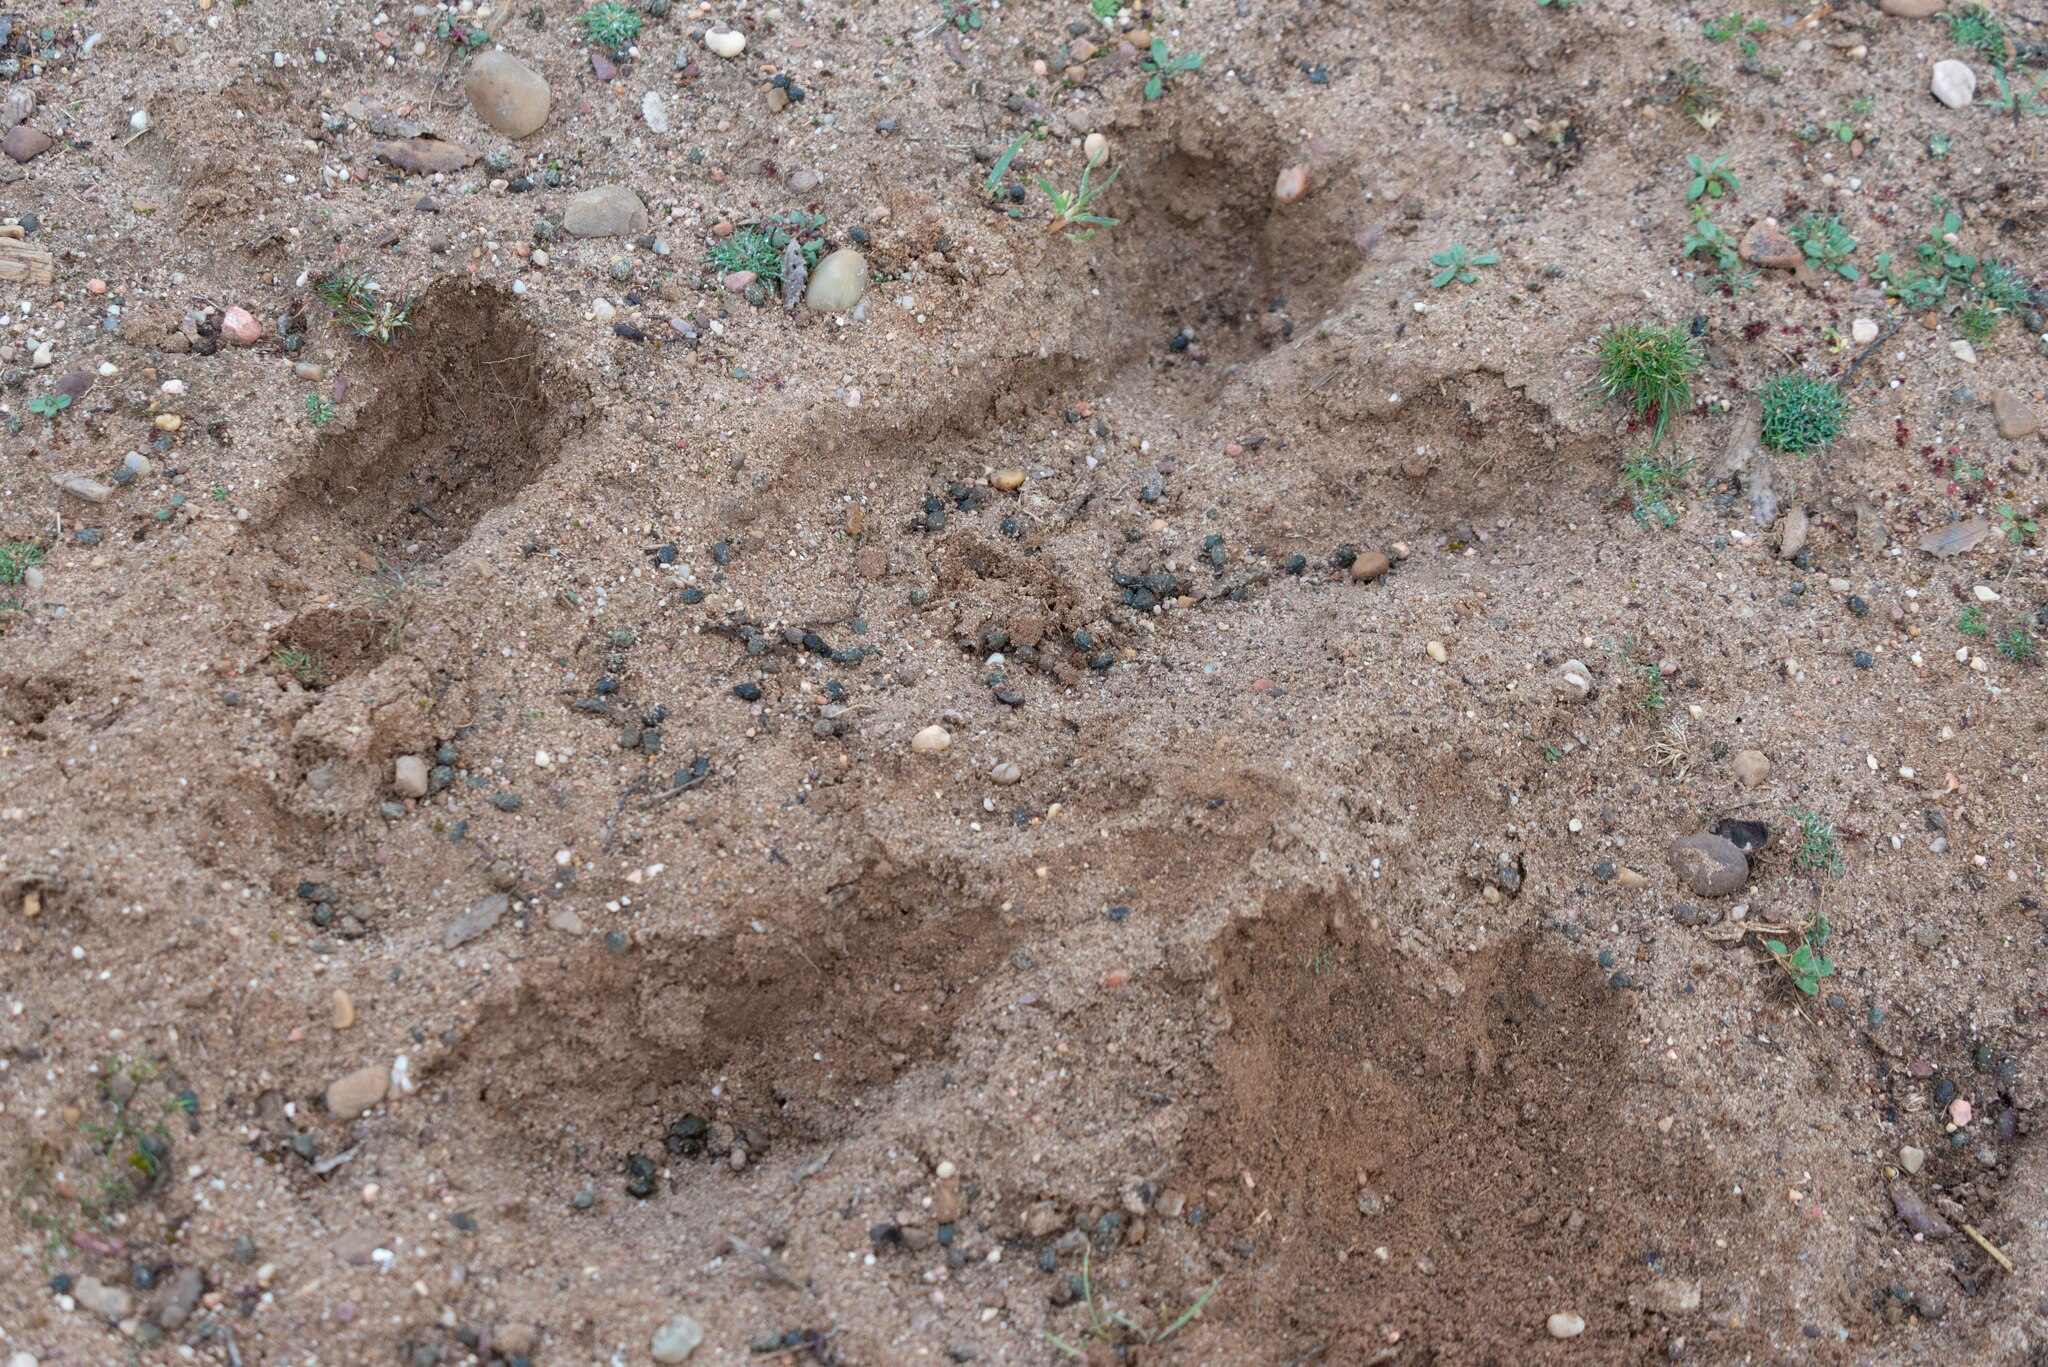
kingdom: Animalia
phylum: Chordata
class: Mammalia
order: Lagomorpha
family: Leporidae
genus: Oryctolagus
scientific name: Oryctolagus cuniculus
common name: European rabbit
